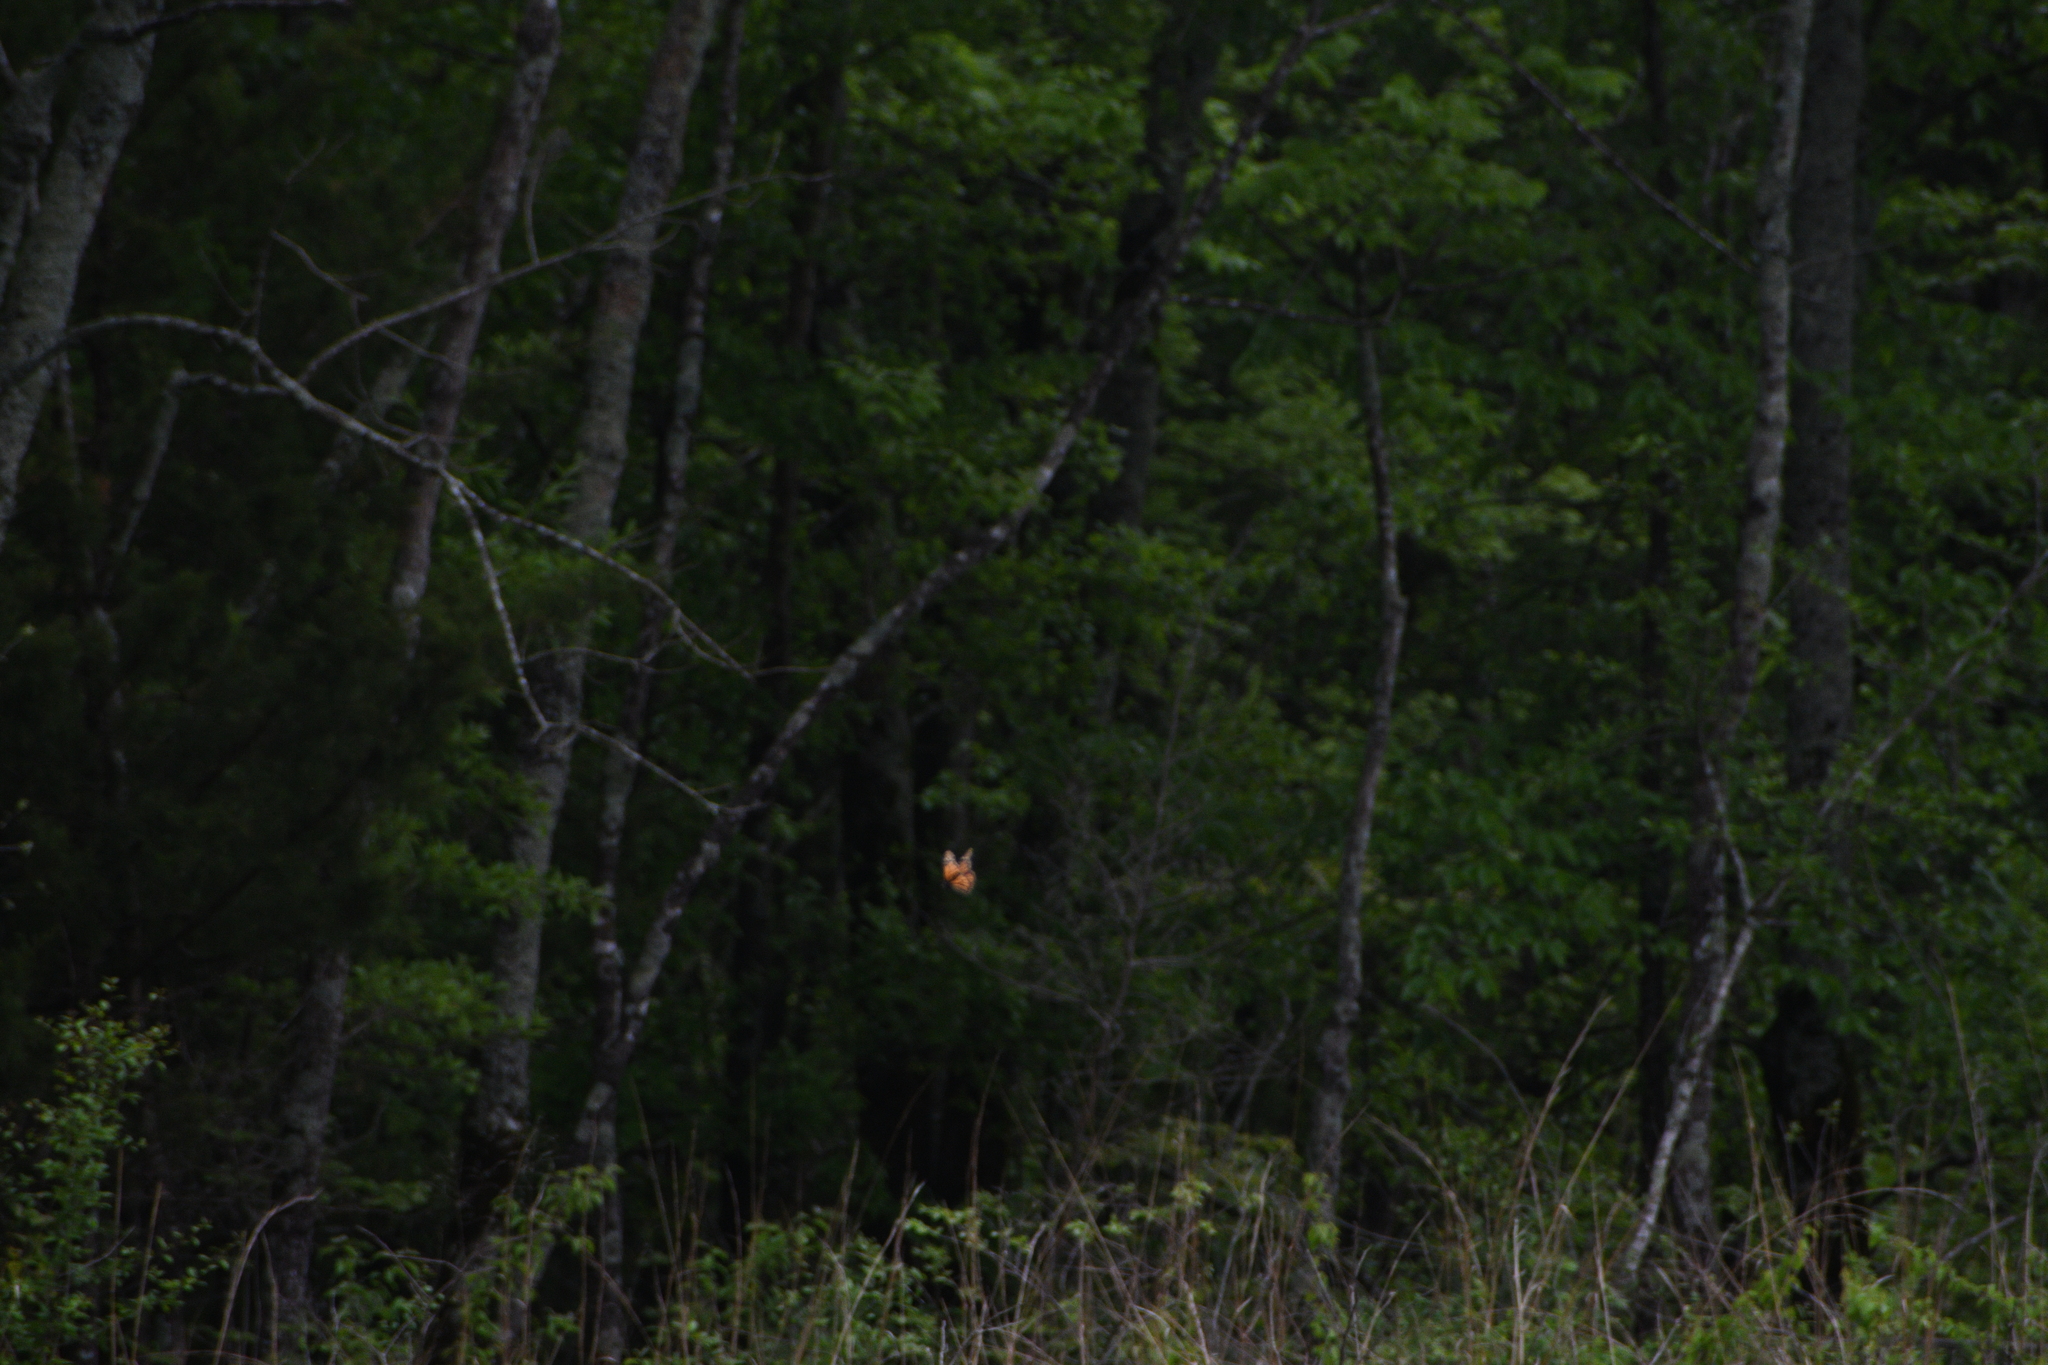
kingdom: Animalia
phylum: Arthropoda
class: Insecta
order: Lepidoptera
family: Nymphalidae
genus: Danaus
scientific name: Danaus plexippus
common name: Monarch
